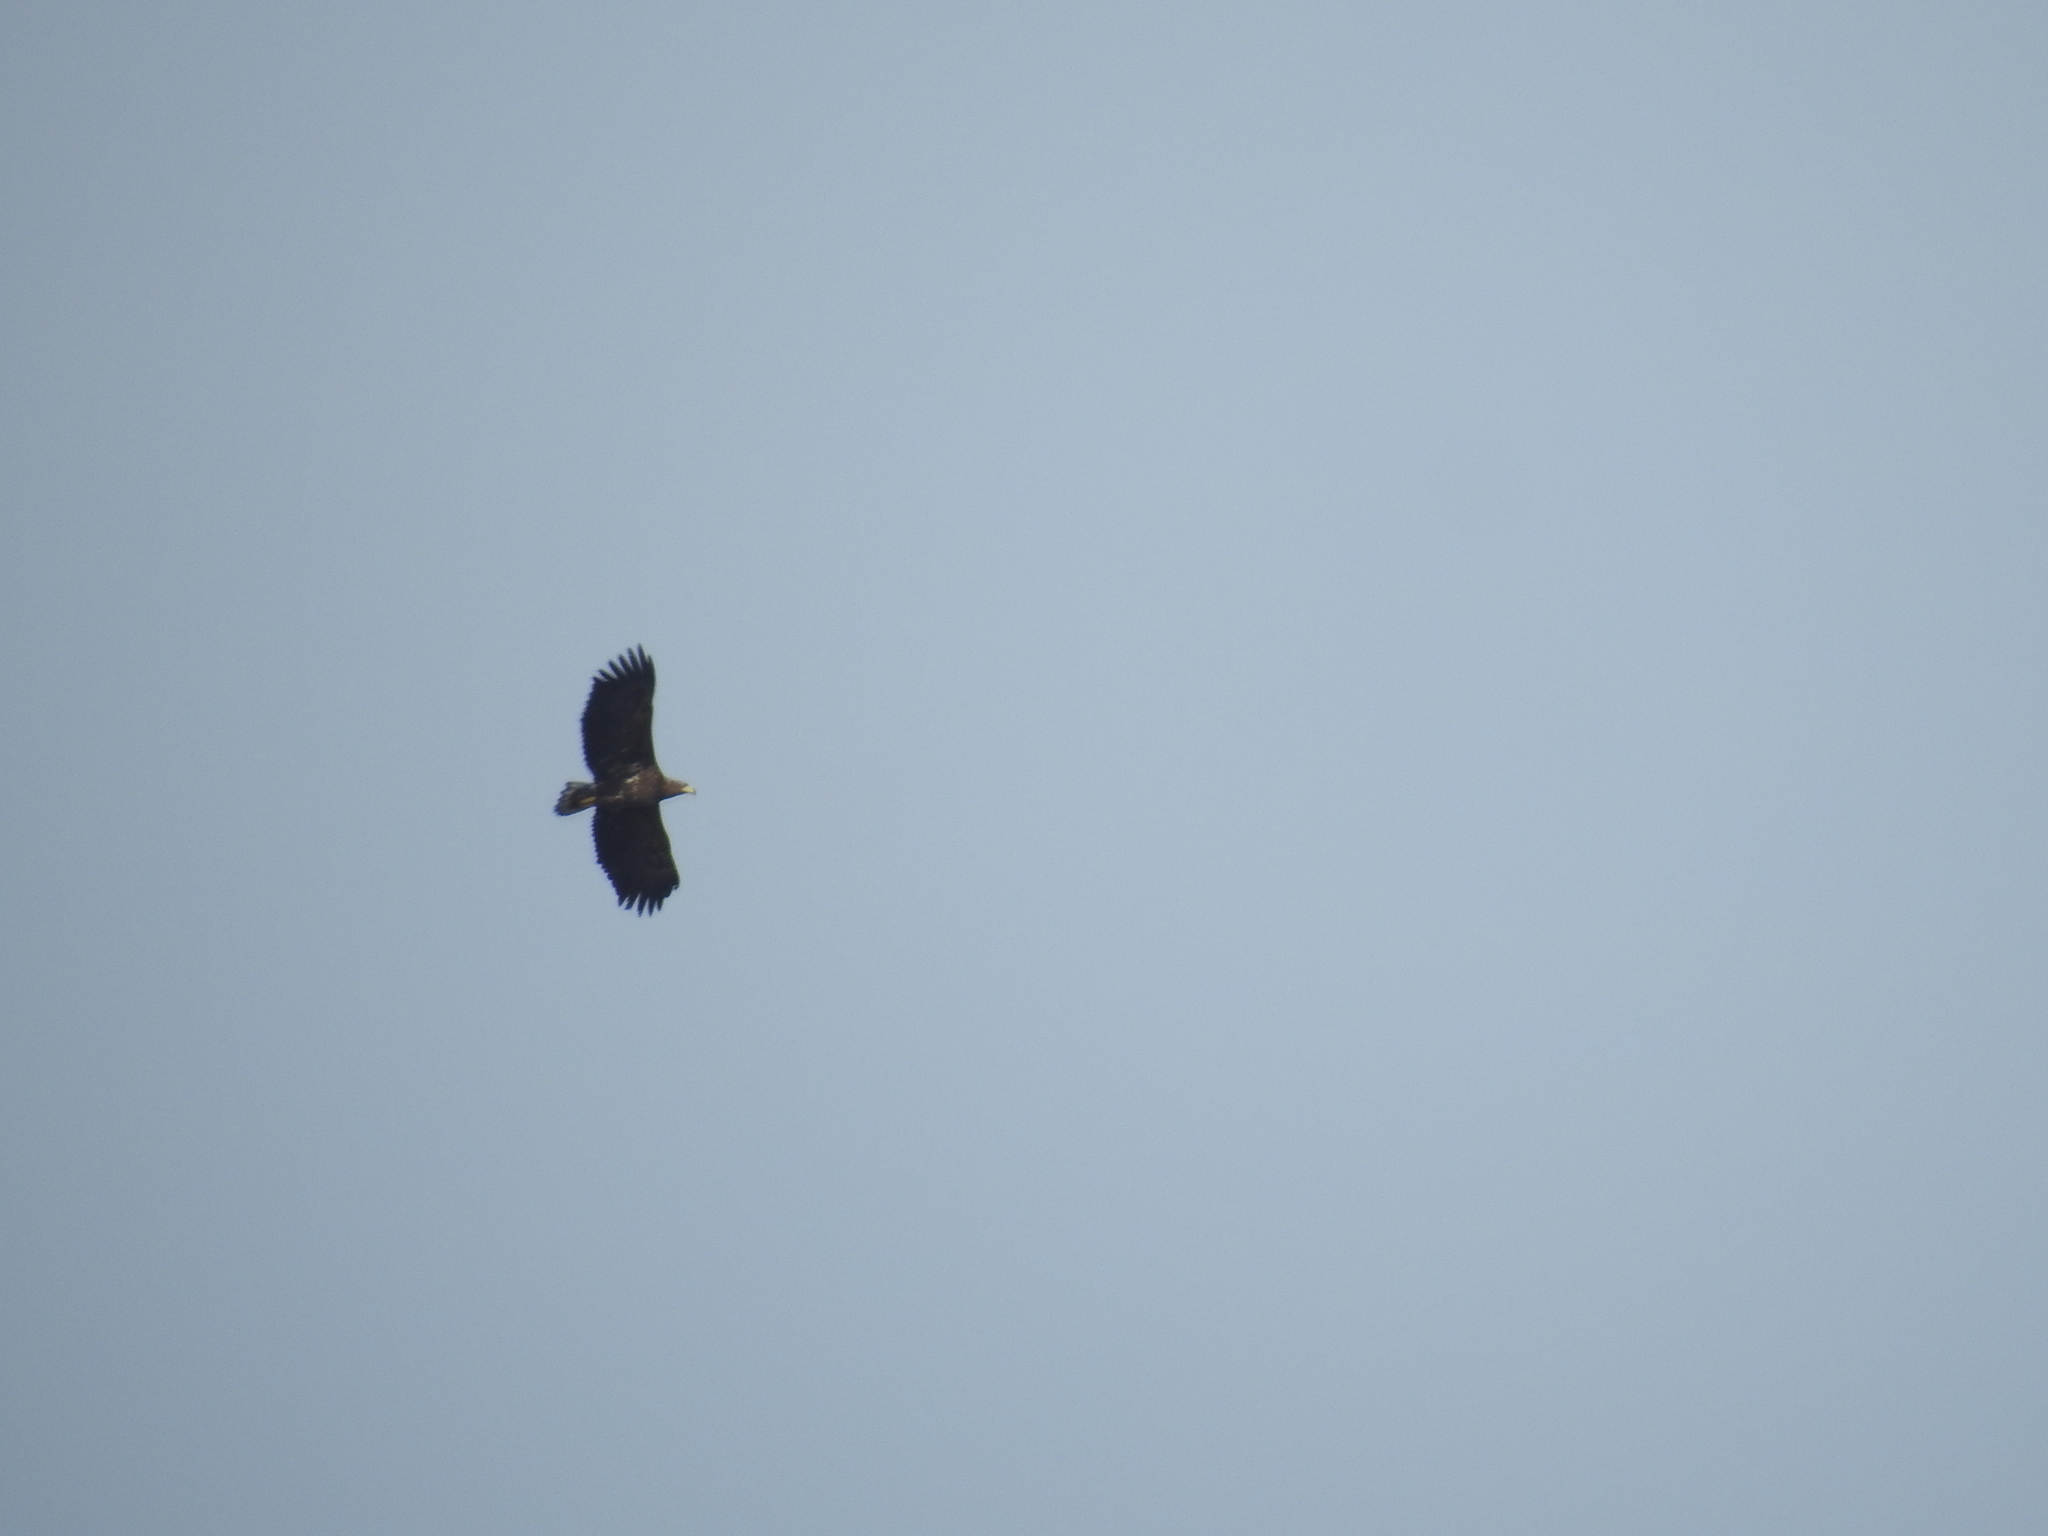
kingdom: Animalia
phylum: Chordata
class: Aves
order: Accipitriformes
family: Accipitridae
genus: Haliaeetus
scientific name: Haliaeetus albicilla
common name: White-tailed eagle
